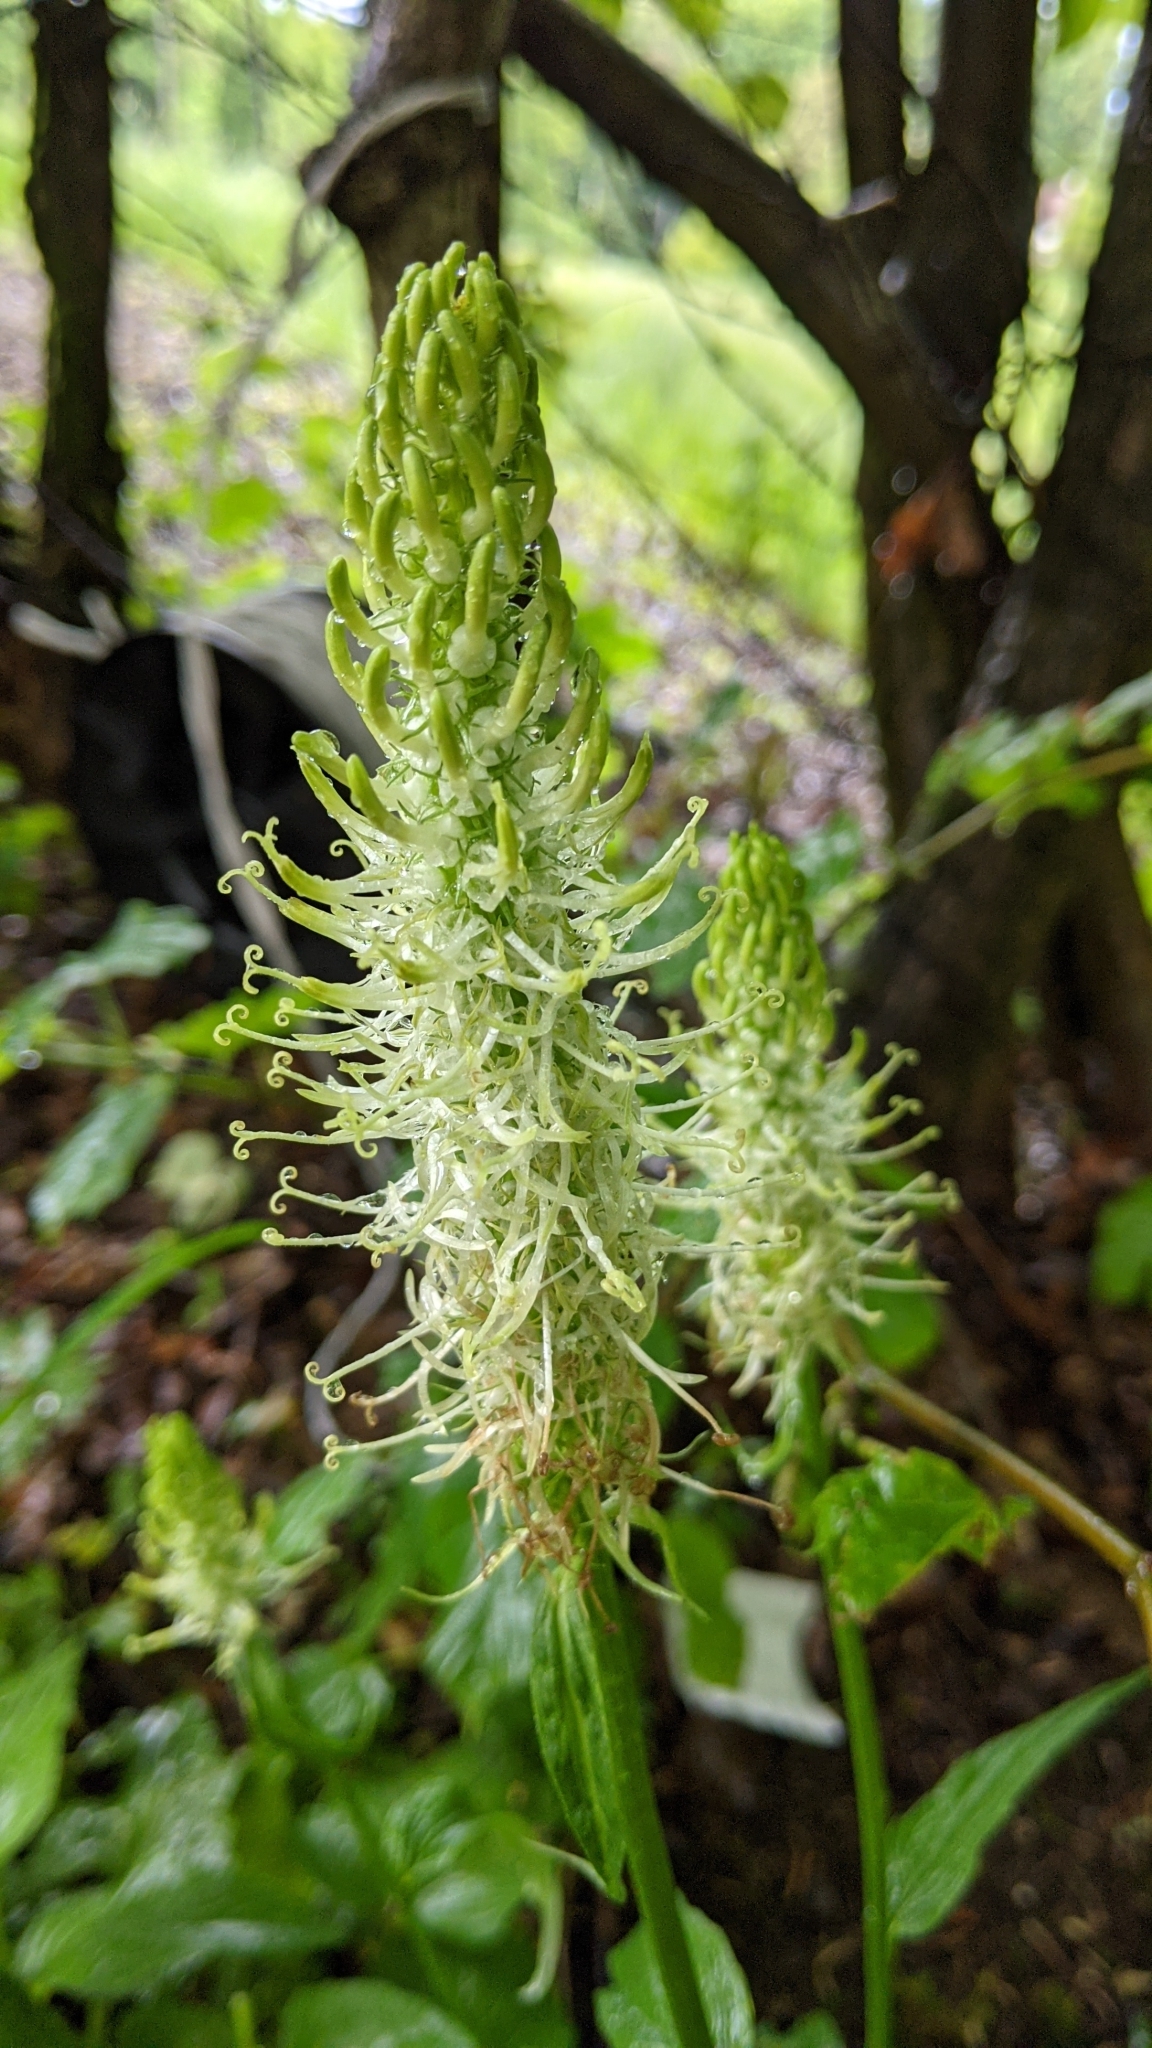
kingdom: Plantae
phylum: Tracheophyta
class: Magnoliopsida
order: Asterales
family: Campanulaceae
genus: Phyteuma
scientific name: Phyteuma spicatum
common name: Spiked rampion
